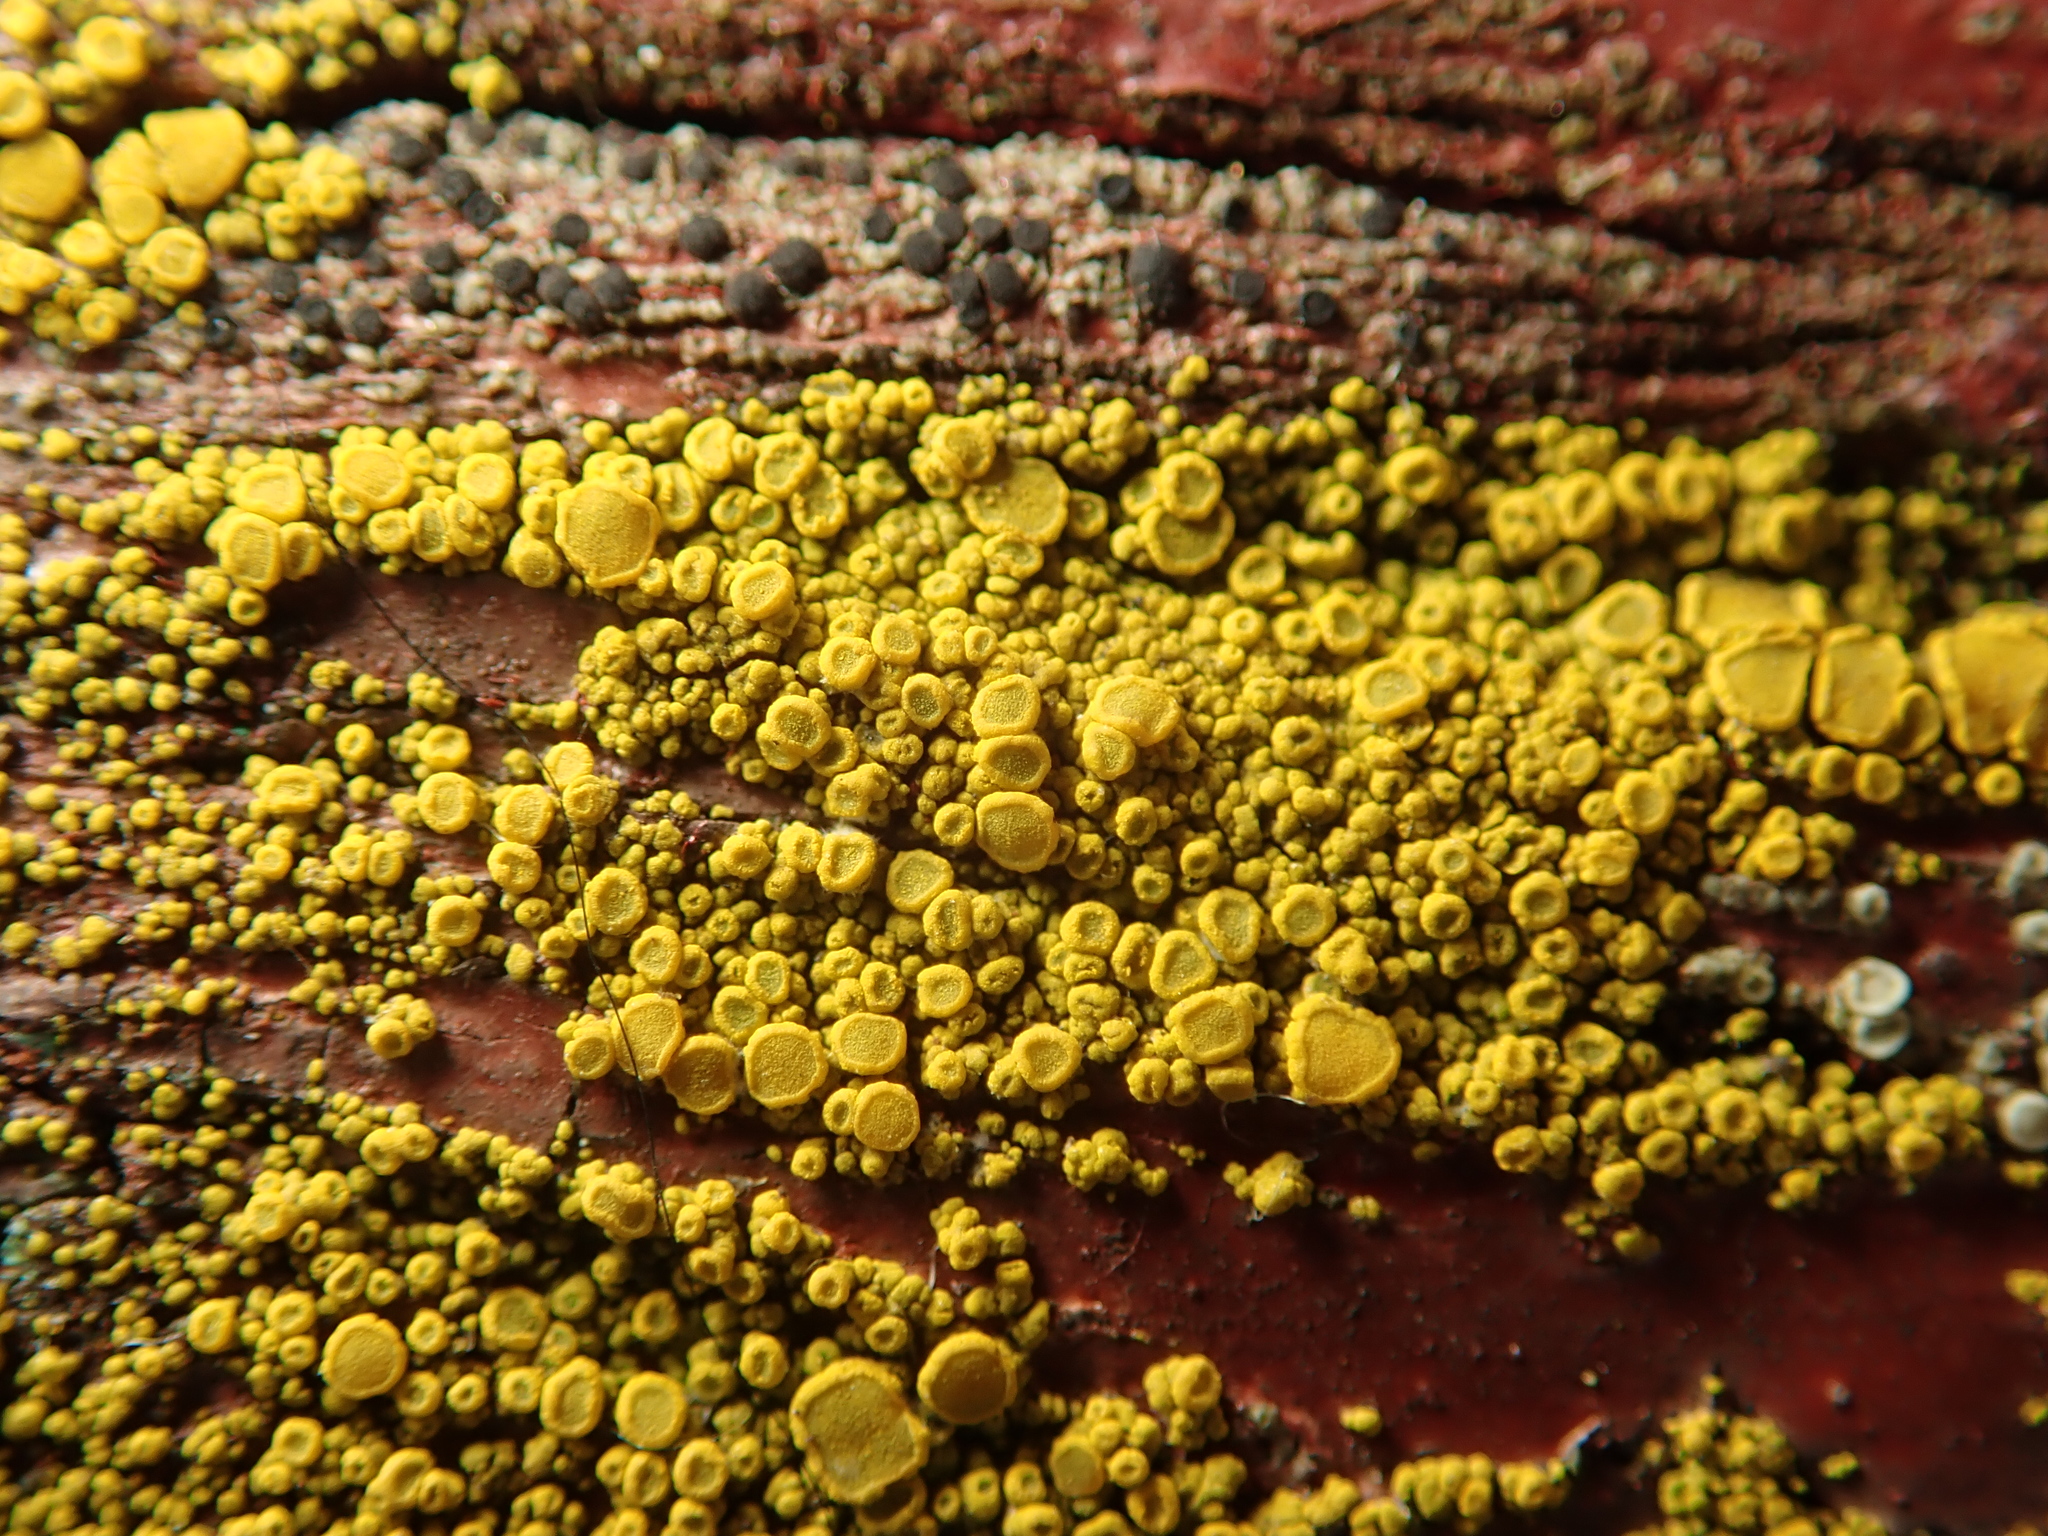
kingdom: Fungi
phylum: Ascomycota
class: Candelariomycetes
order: Candelariales
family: Candelariaceae
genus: Candelariella
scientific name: Candelariella vitellina
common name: Common goldspeck
